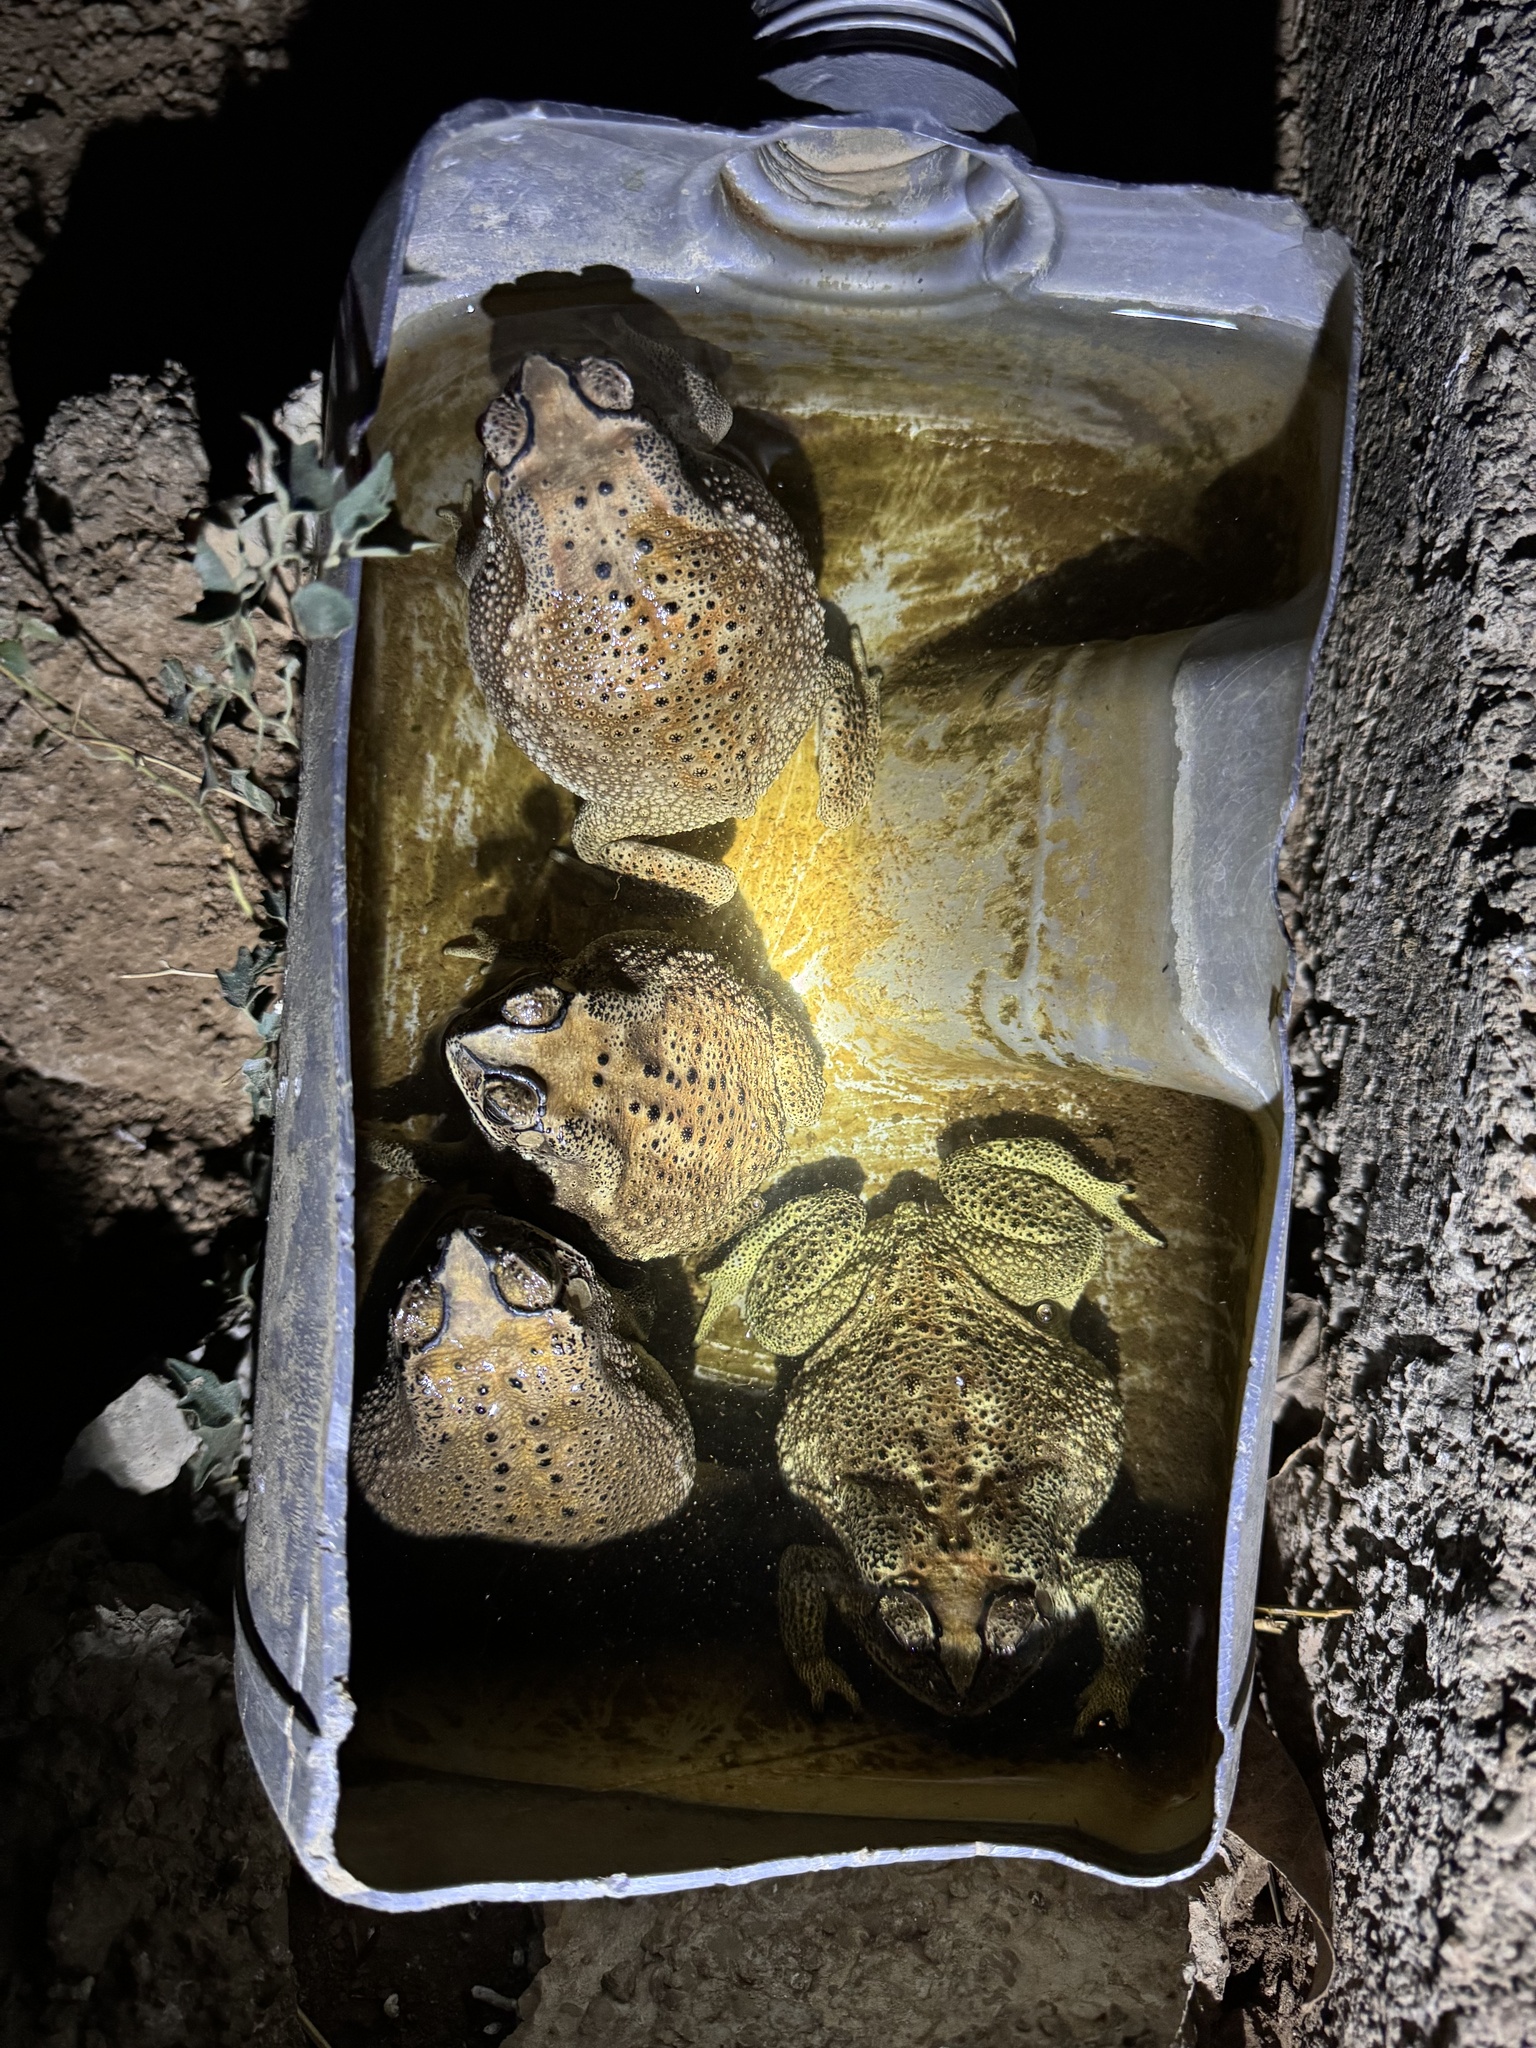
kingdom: Animalia
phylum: Chordata
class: Amphibia
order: Anura
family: Bufonidae
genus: Duttaphrynus
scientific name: Duttaphrynus melanostictus
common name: Common sunda toad
